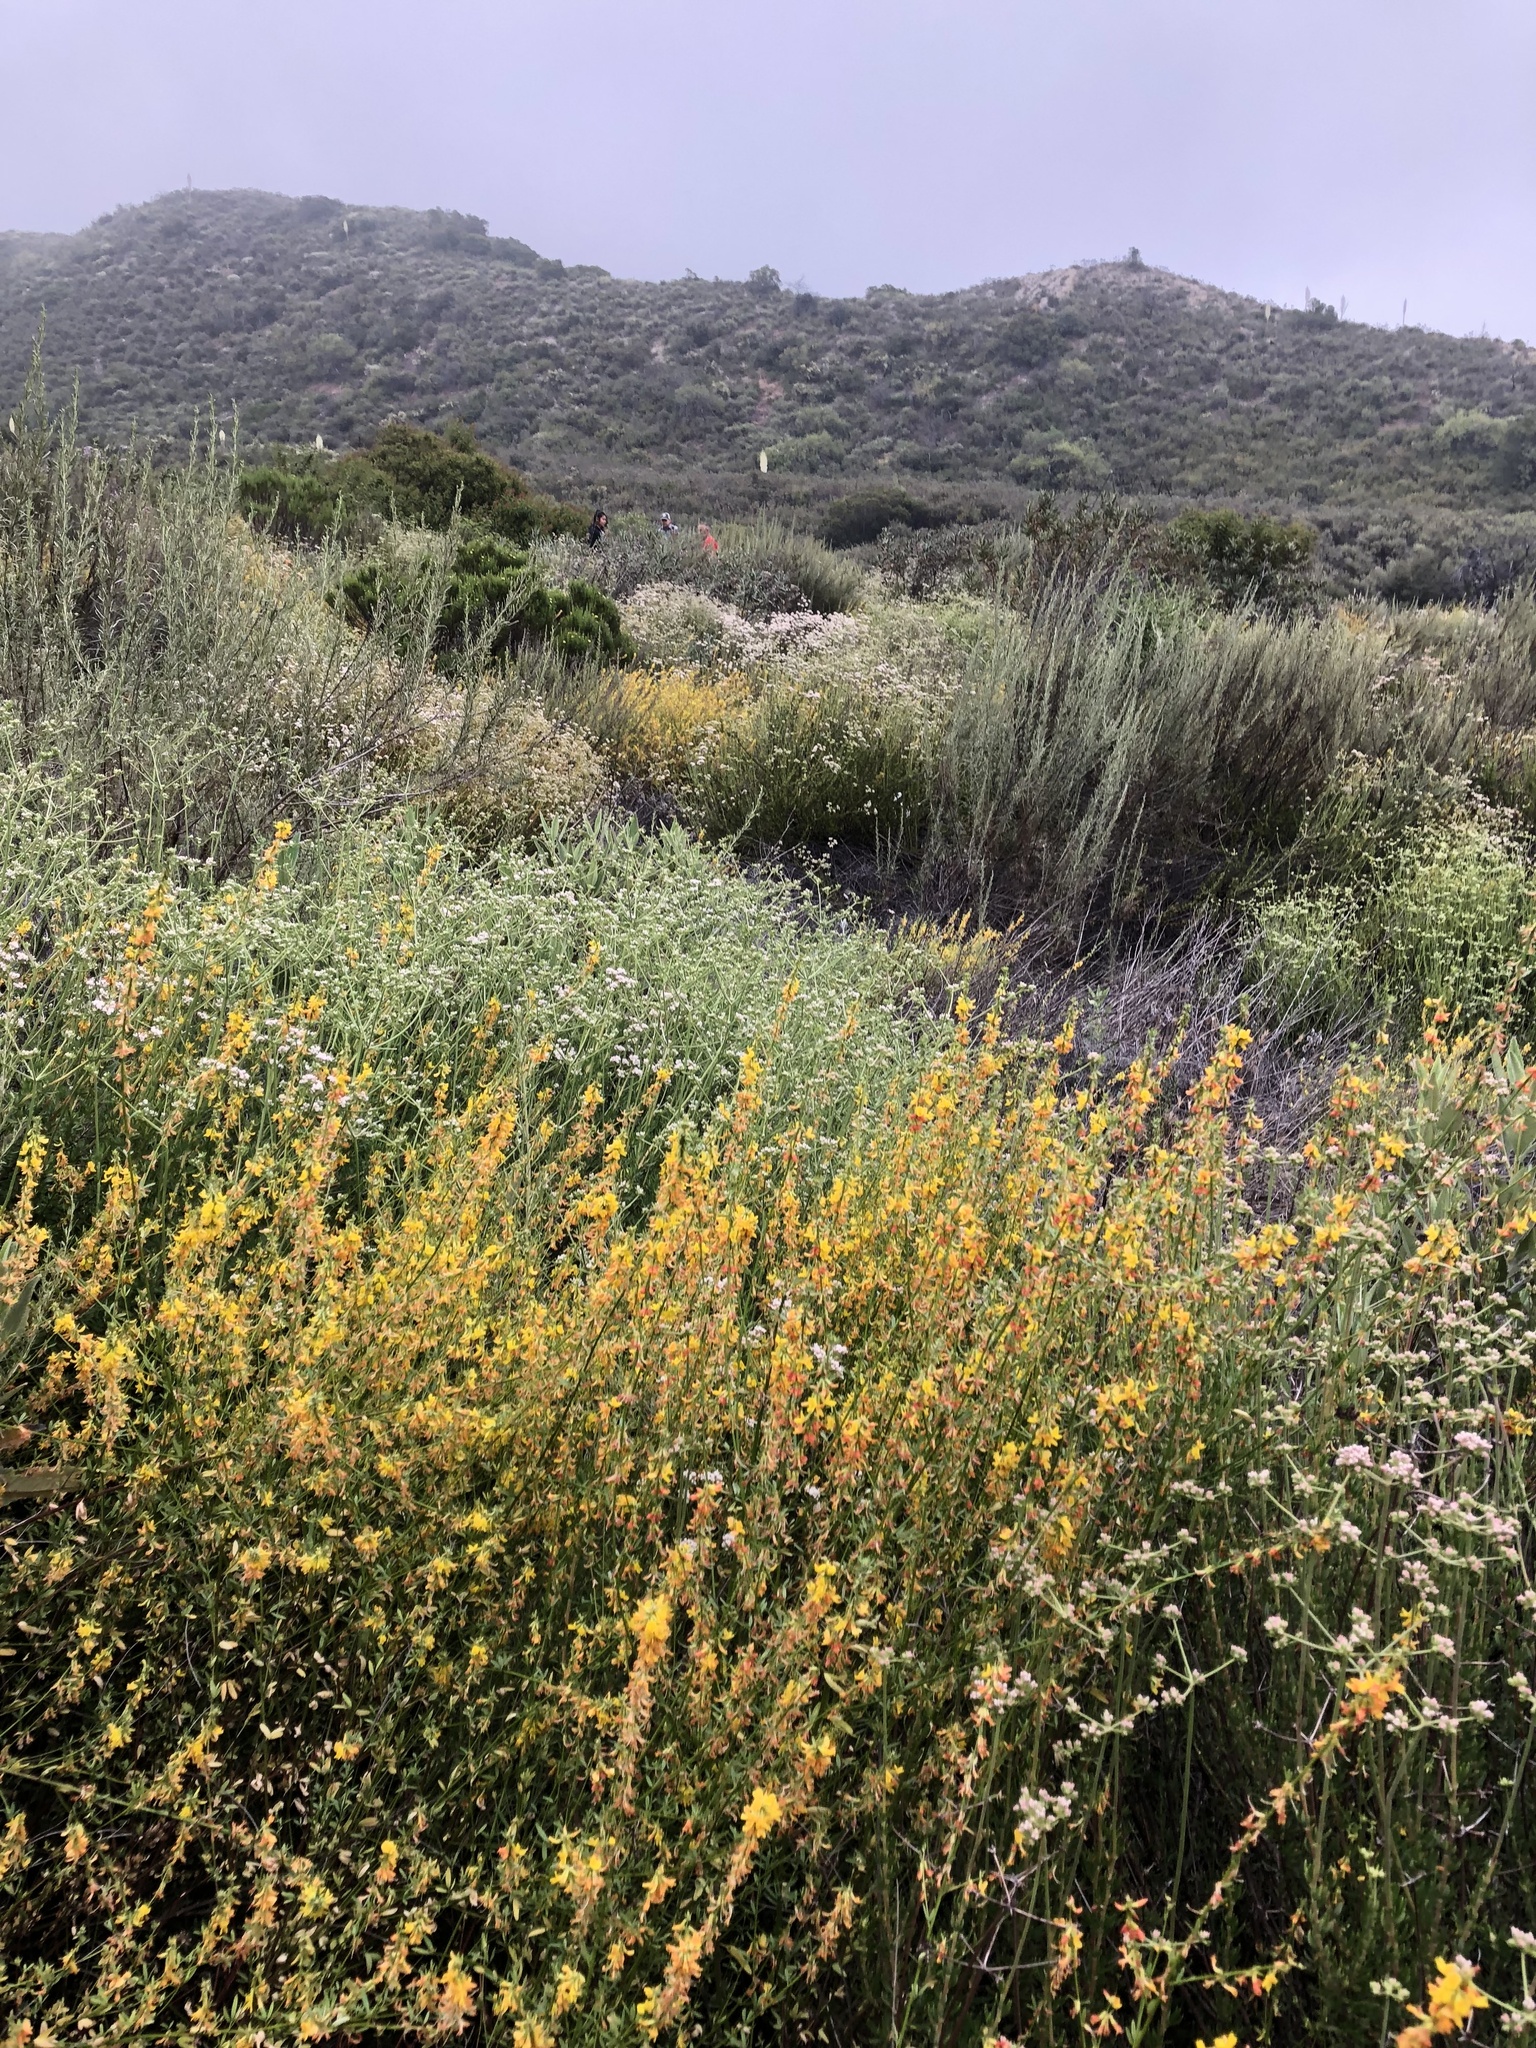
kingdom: Plantae
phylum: Tracheophyta
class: Magnoliopsida
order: Fabales
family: Fabaceae
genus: Acmispon
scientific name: Acmispon glaber
